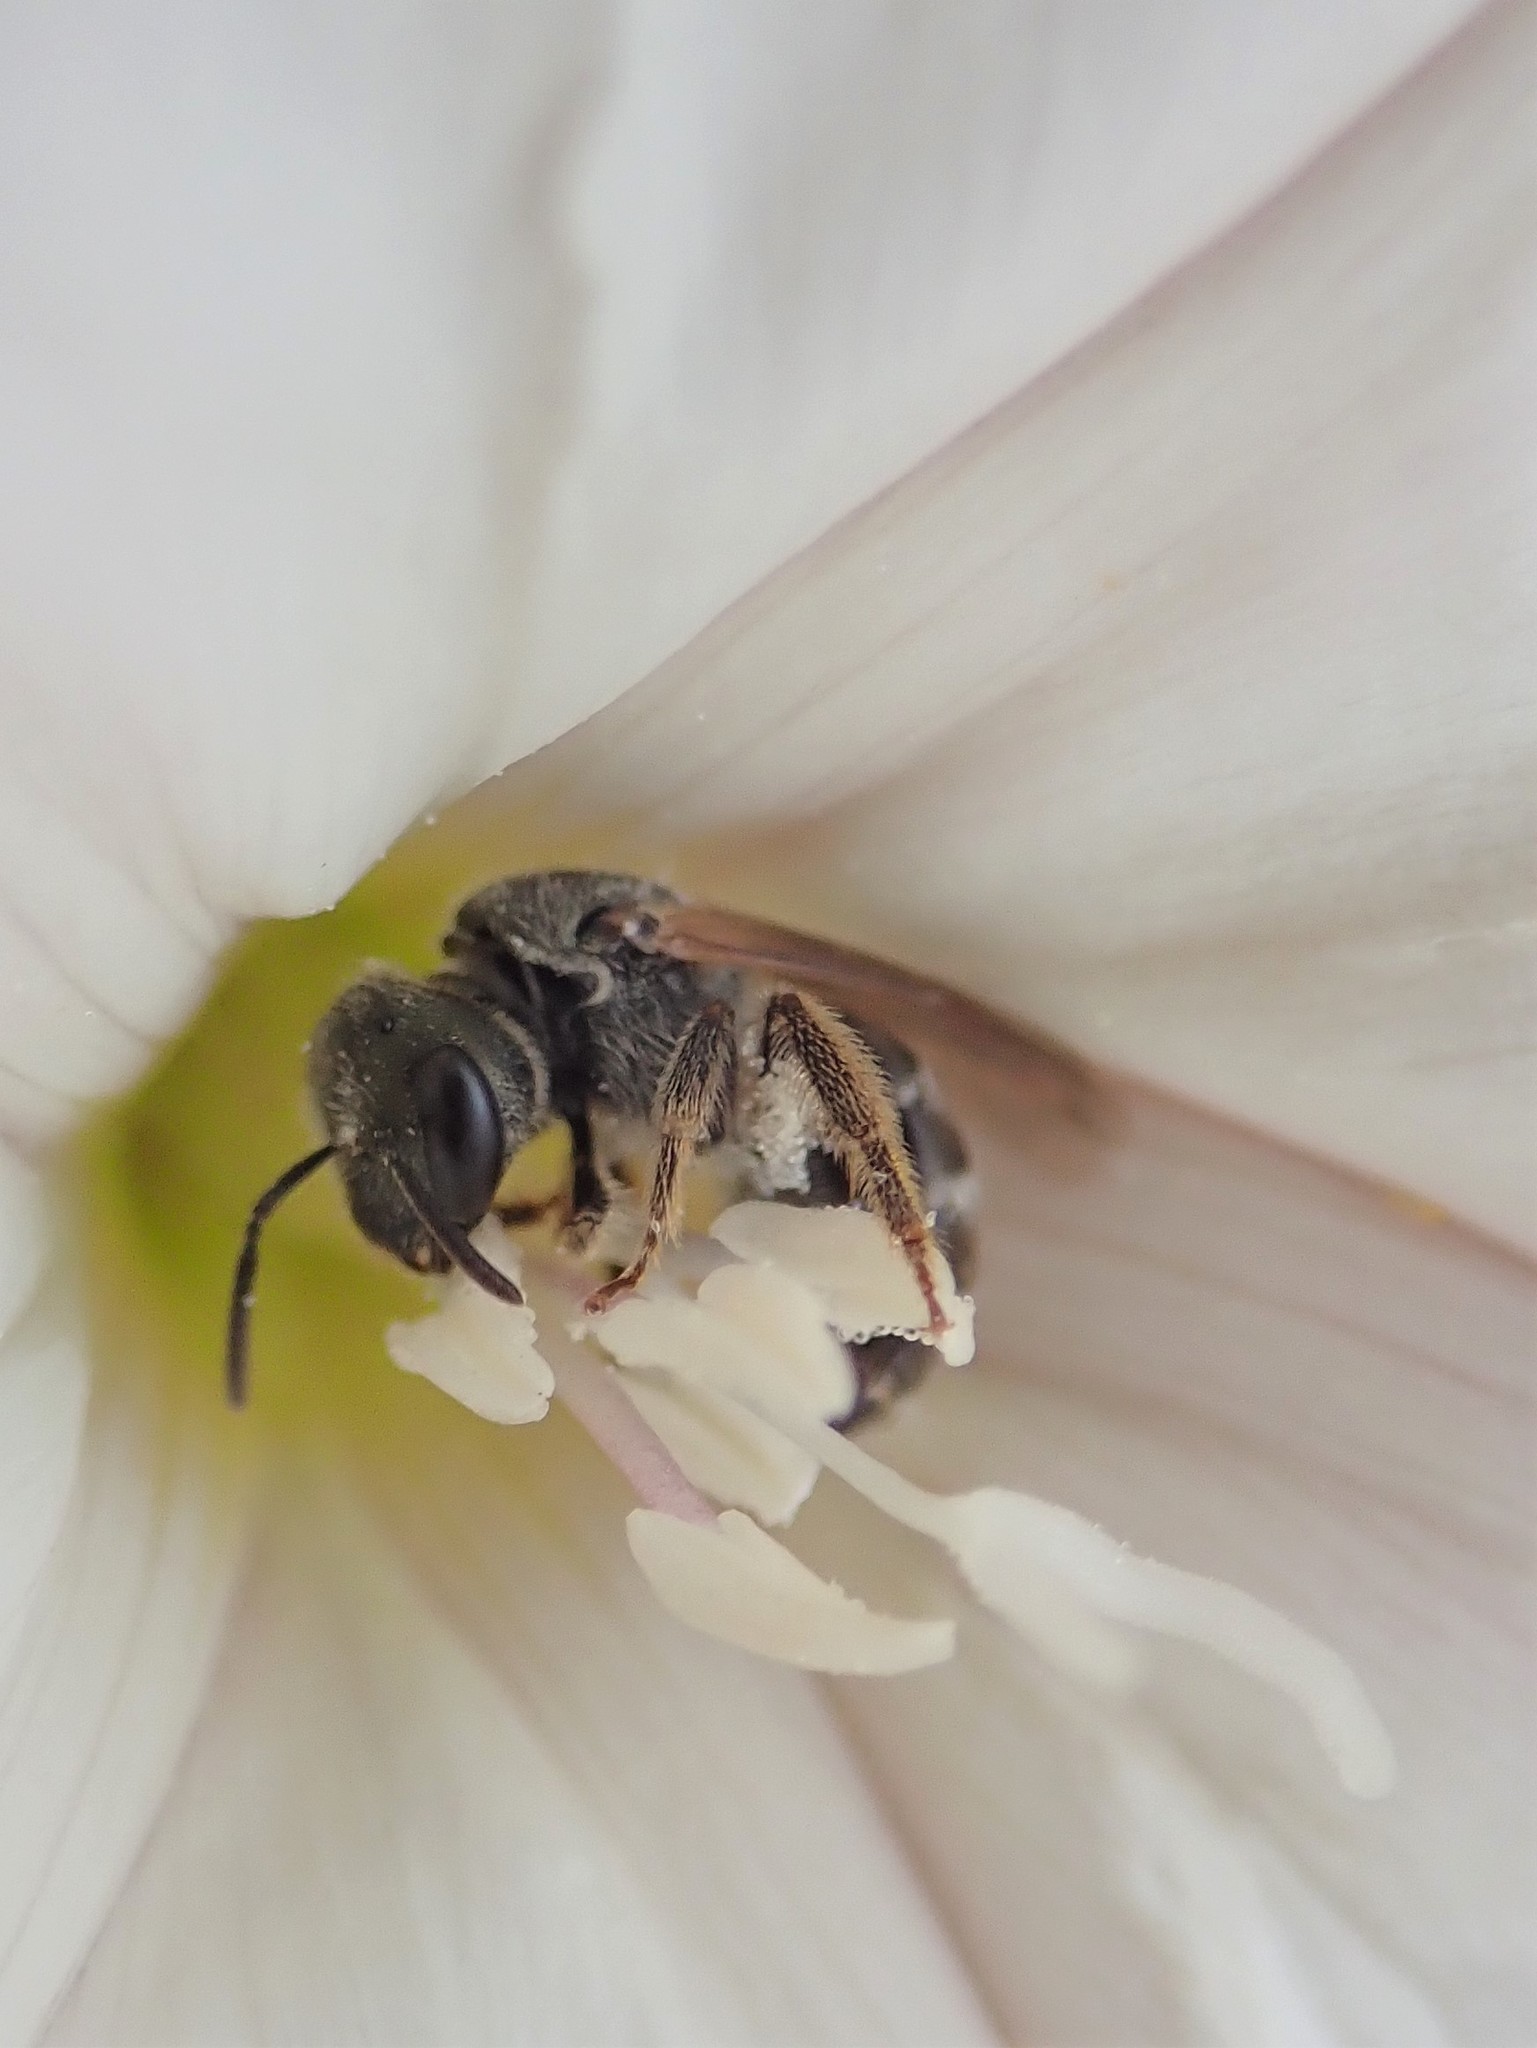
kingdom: Animalia
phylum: Arthropoda
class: Insecta
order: Hymenoptera
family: Halictidae
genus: Halictus
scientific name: Halictus tripartitus
